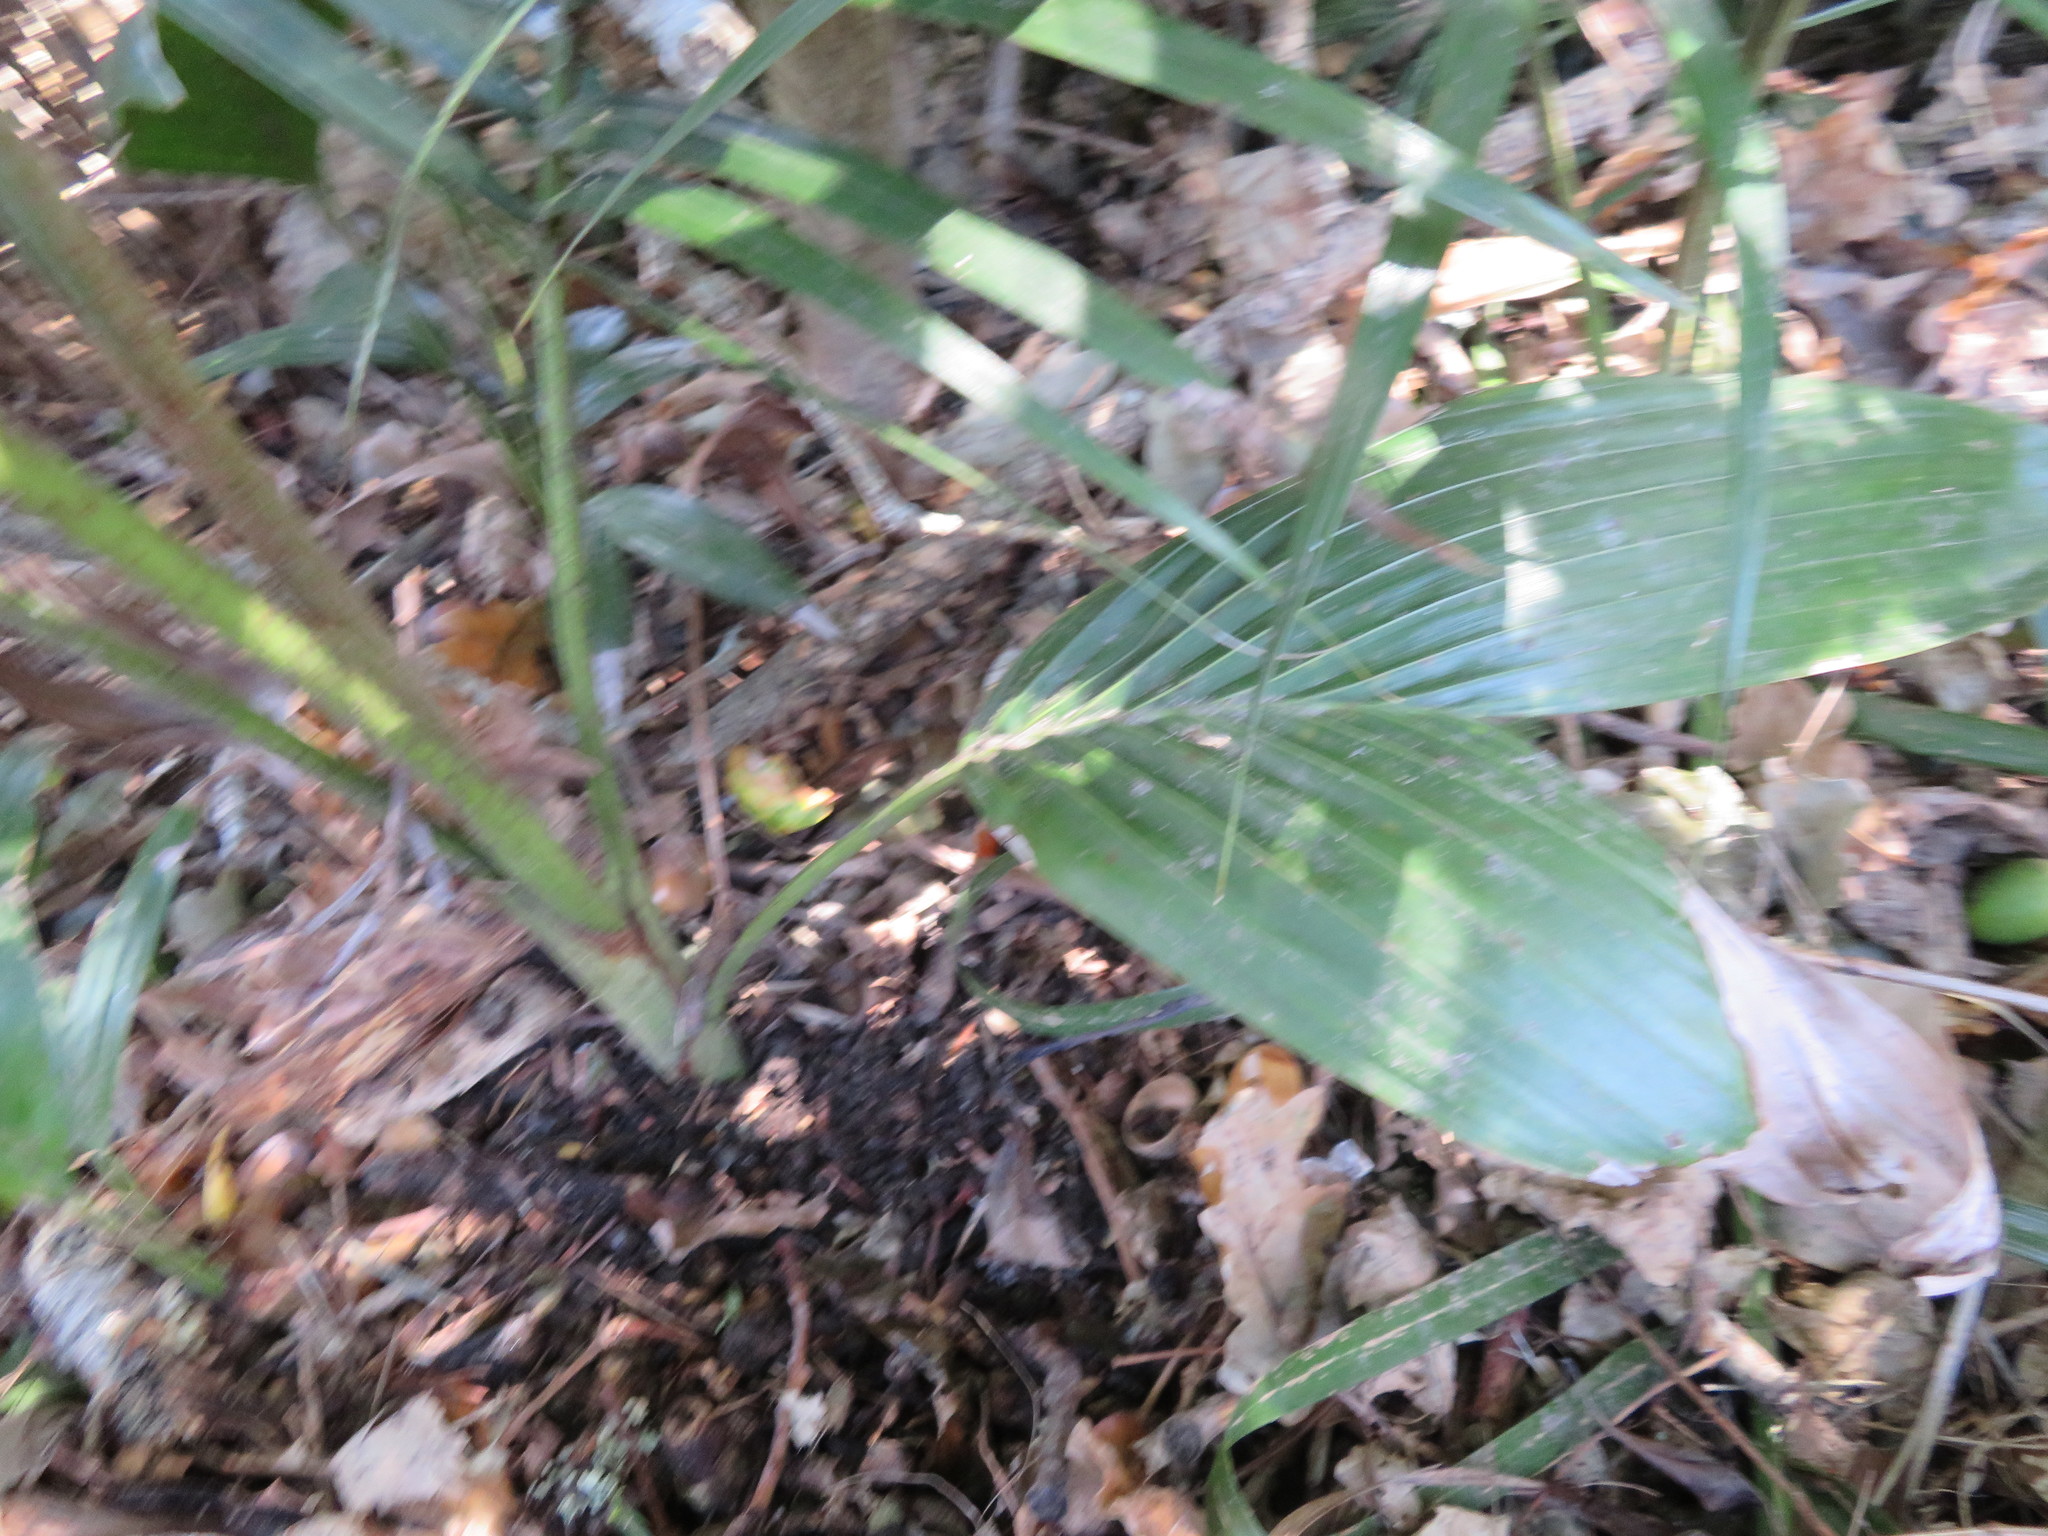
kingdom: Plantae
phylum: Tracheophyta
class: Liliopsida
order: Arecales
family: Arecaceae
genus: Archontophoenix
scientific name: Archontophoenix cunninghamiana
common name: Piccabeen bangalow palm
